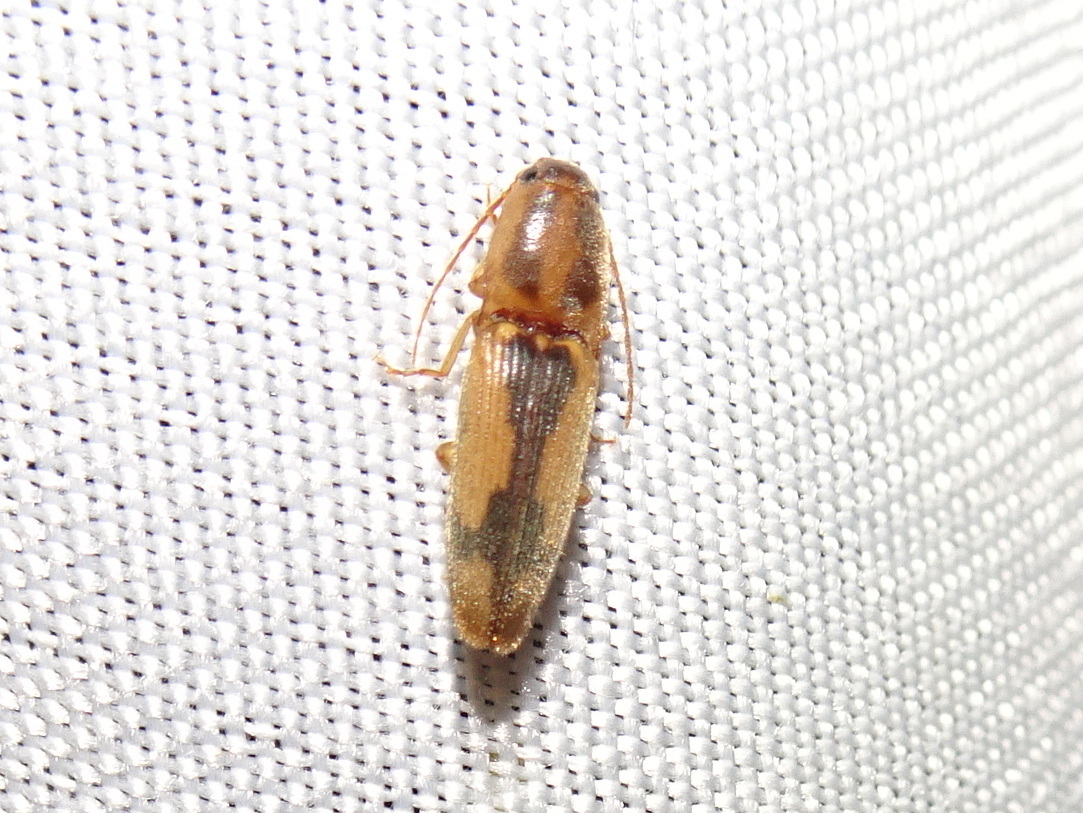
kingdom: Animalia
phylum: Arthropoda
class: Insecta
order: Coleoptera
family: Elateridae
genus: Monocrepidius
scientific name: Monocrepidius
